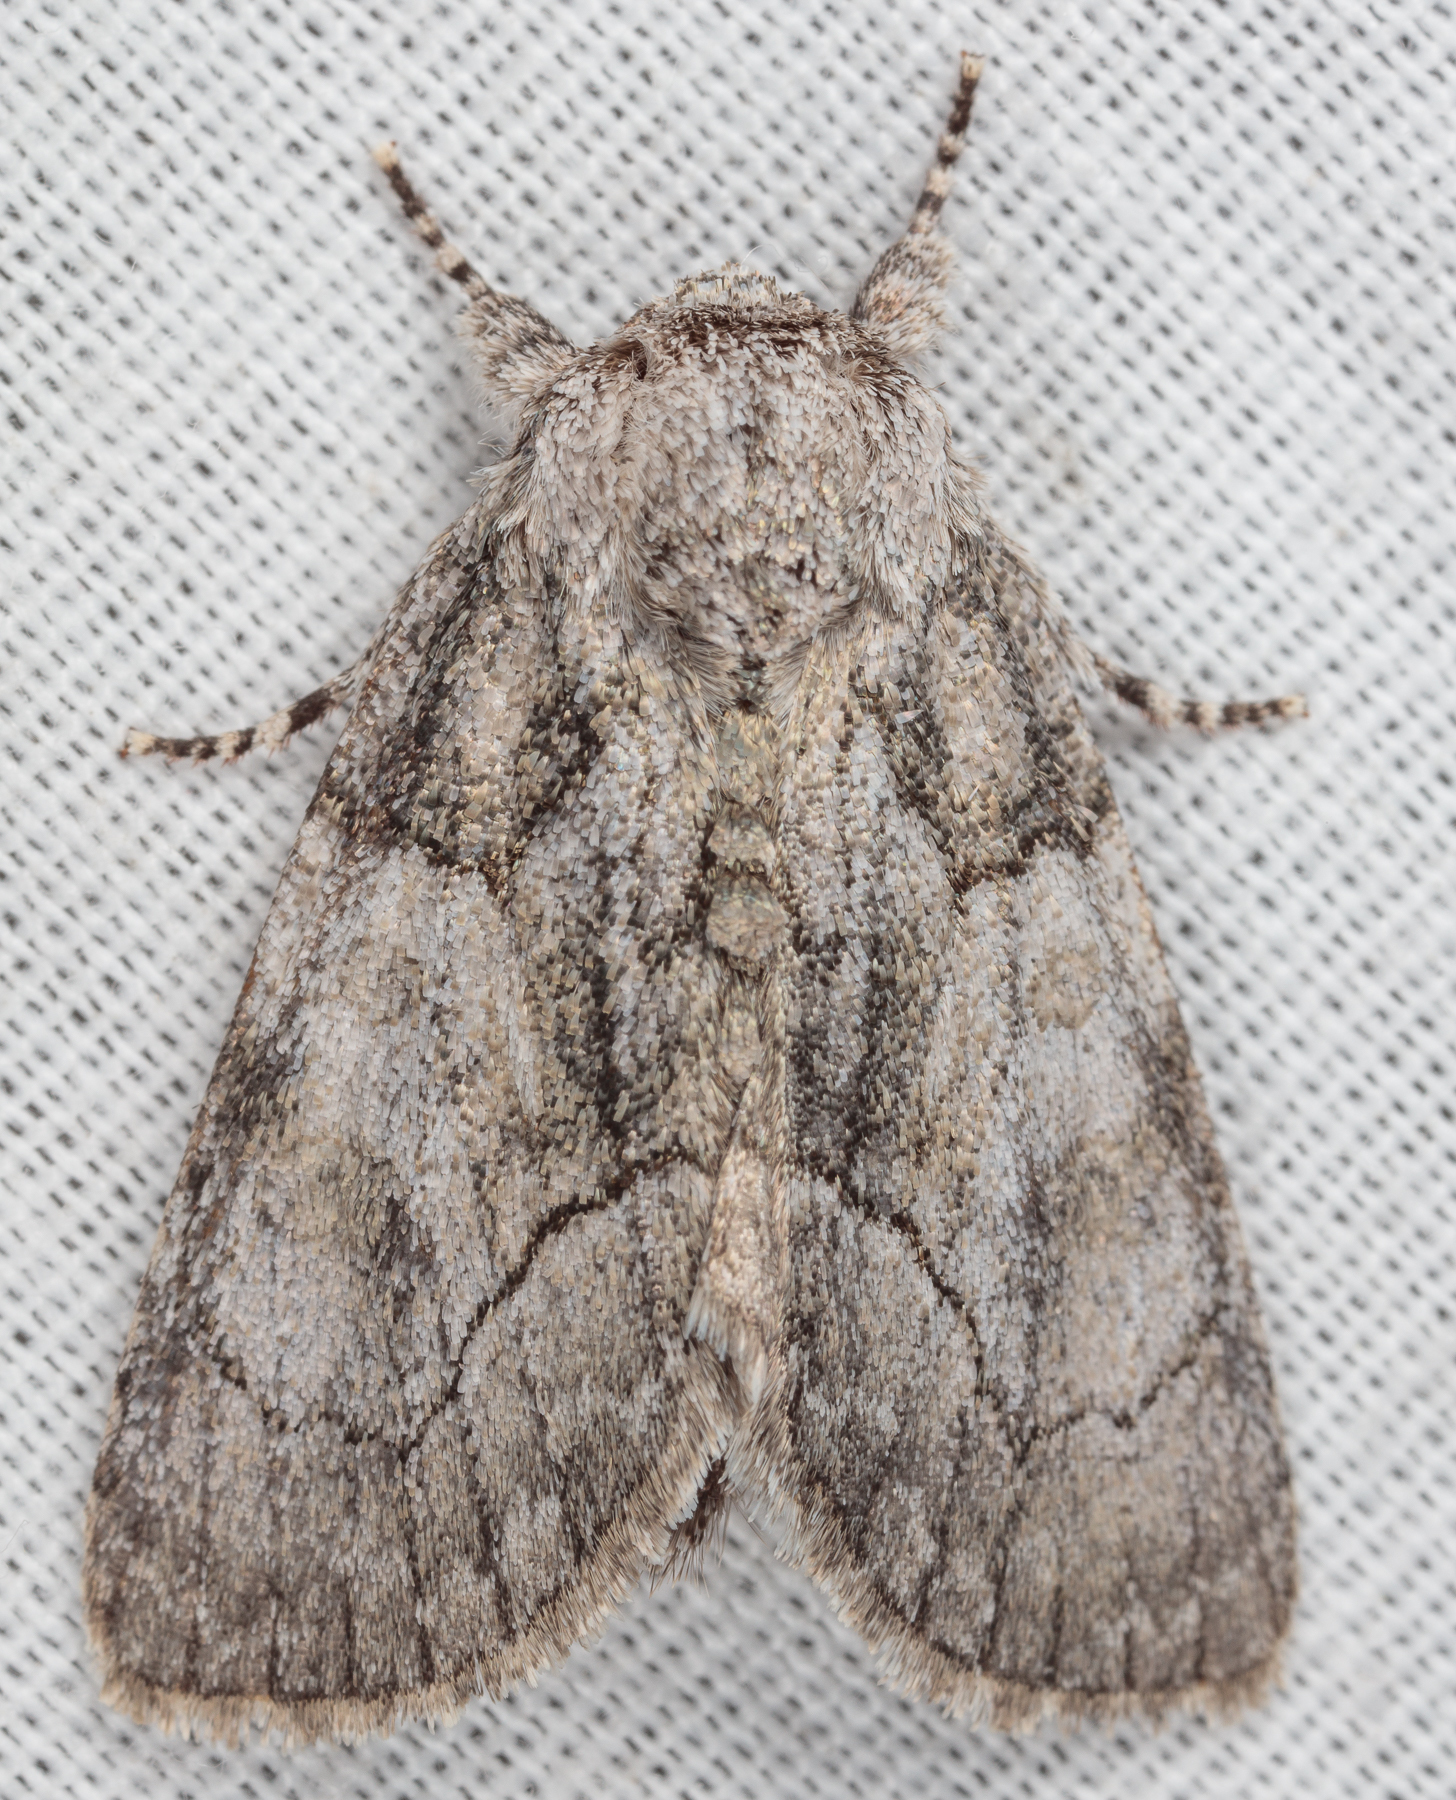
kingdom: Animalia
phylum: Arthropoda
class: Insecta
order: Lepidoptera
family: Noctuidae
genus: Raphia
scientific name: Raphia frater
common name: Brother
